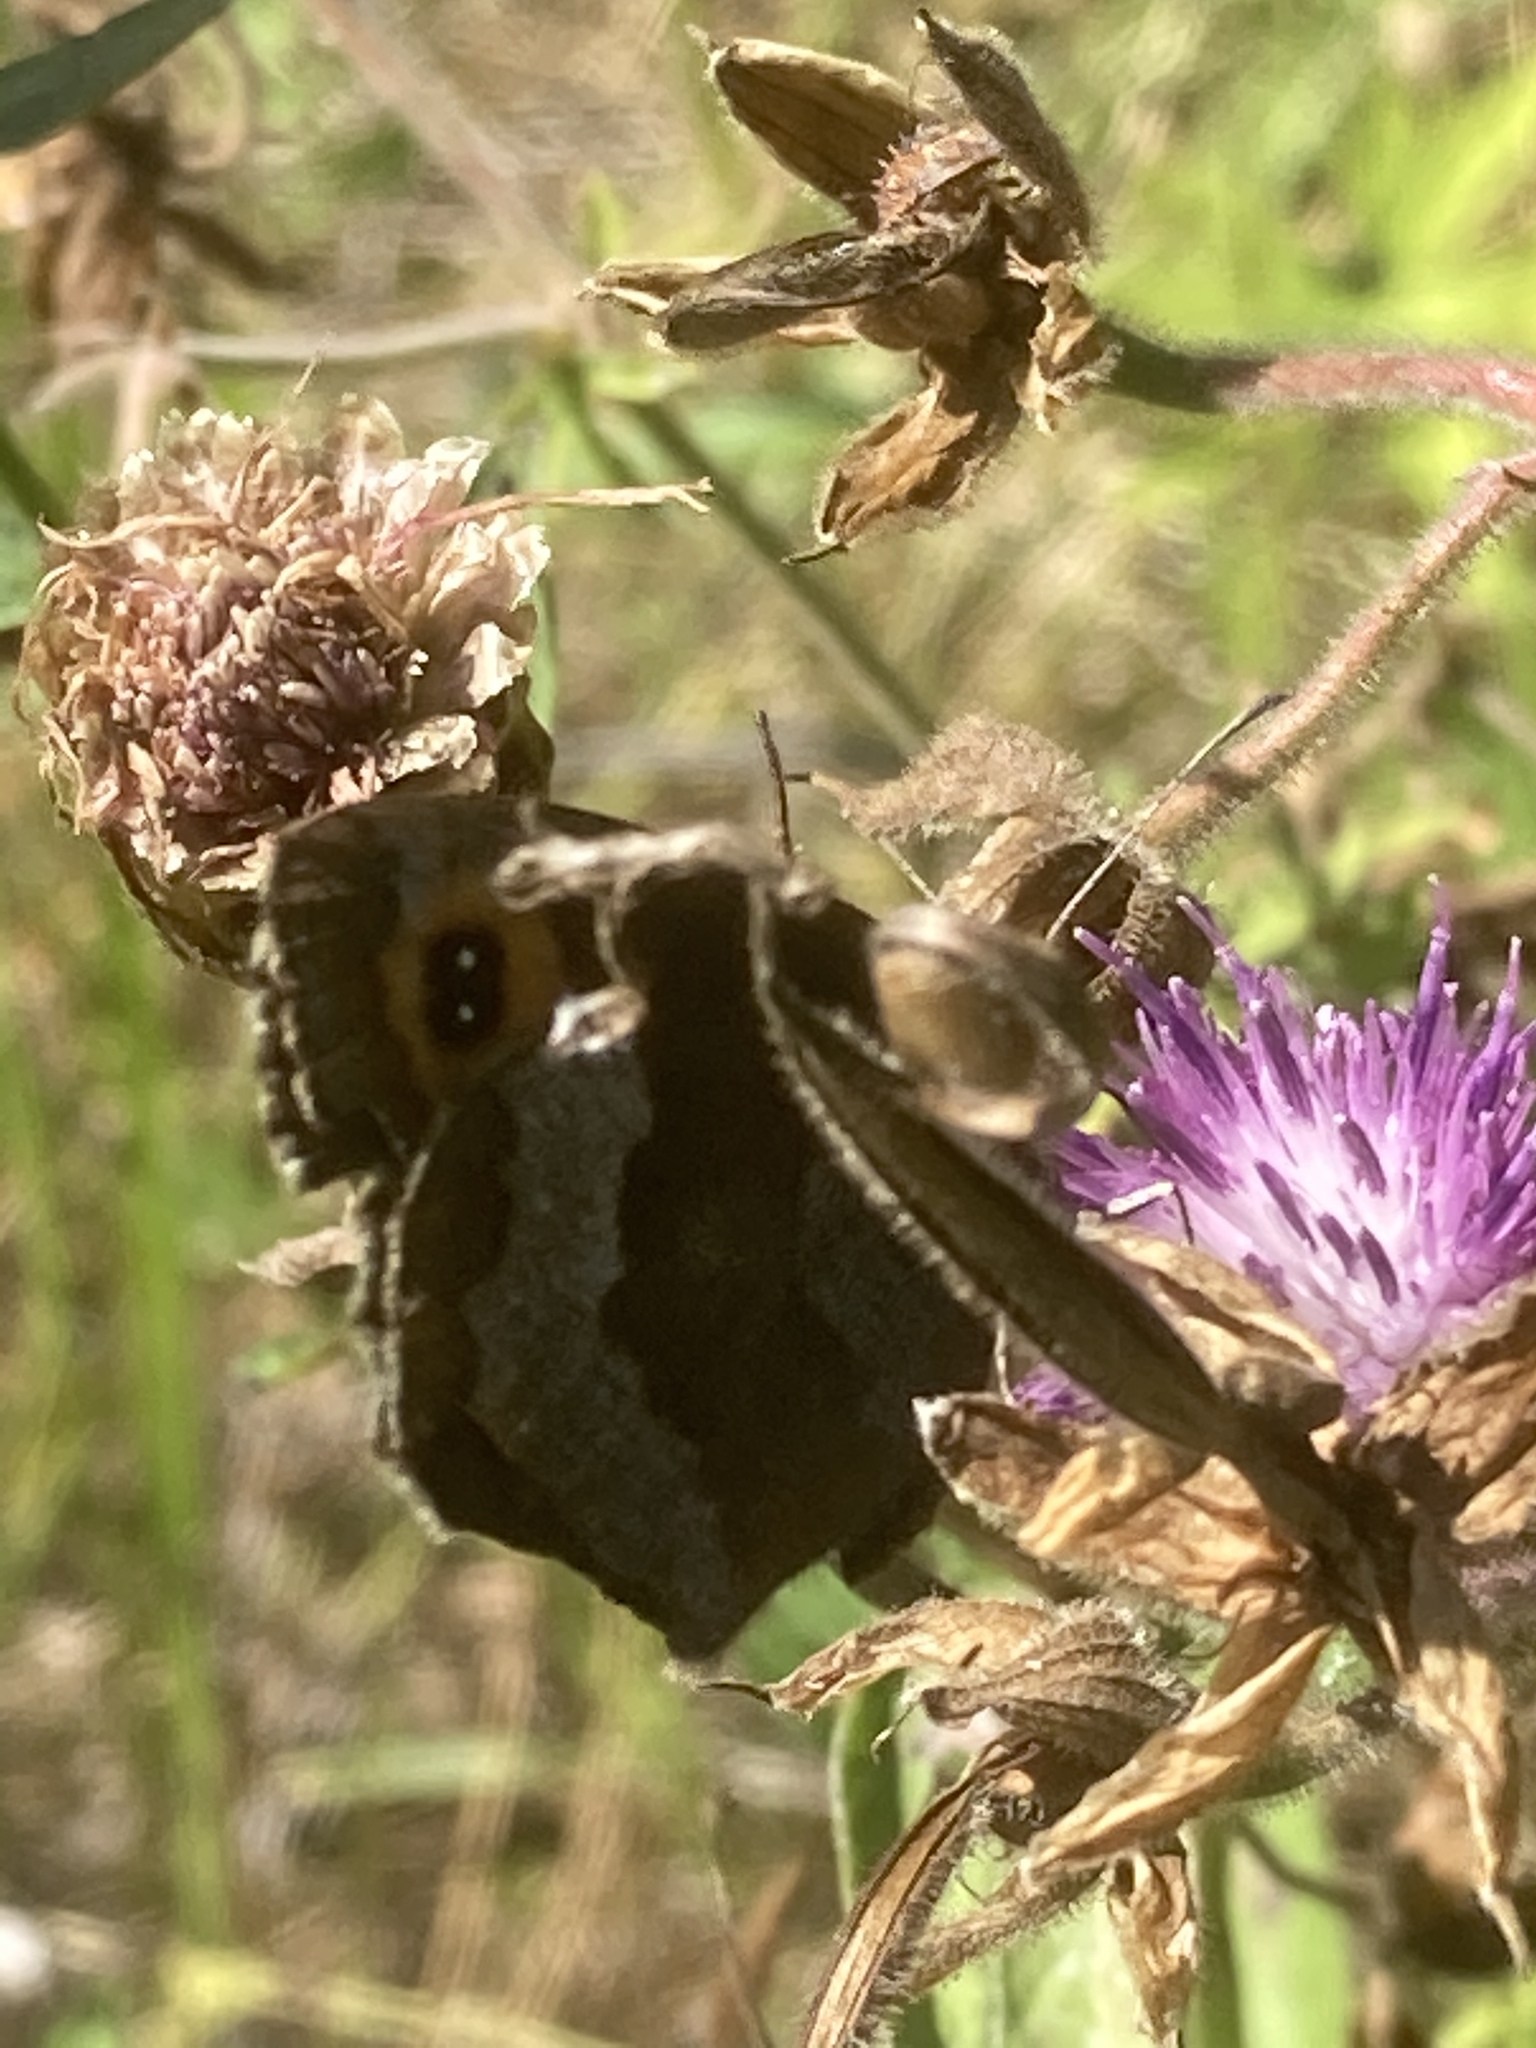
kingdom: Animalia
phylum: Arthropoda
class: Insecta
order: Lepidoptera
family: Nymphalidae
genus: Erebia
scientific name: Erebia aethiops
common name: Scotch argus
